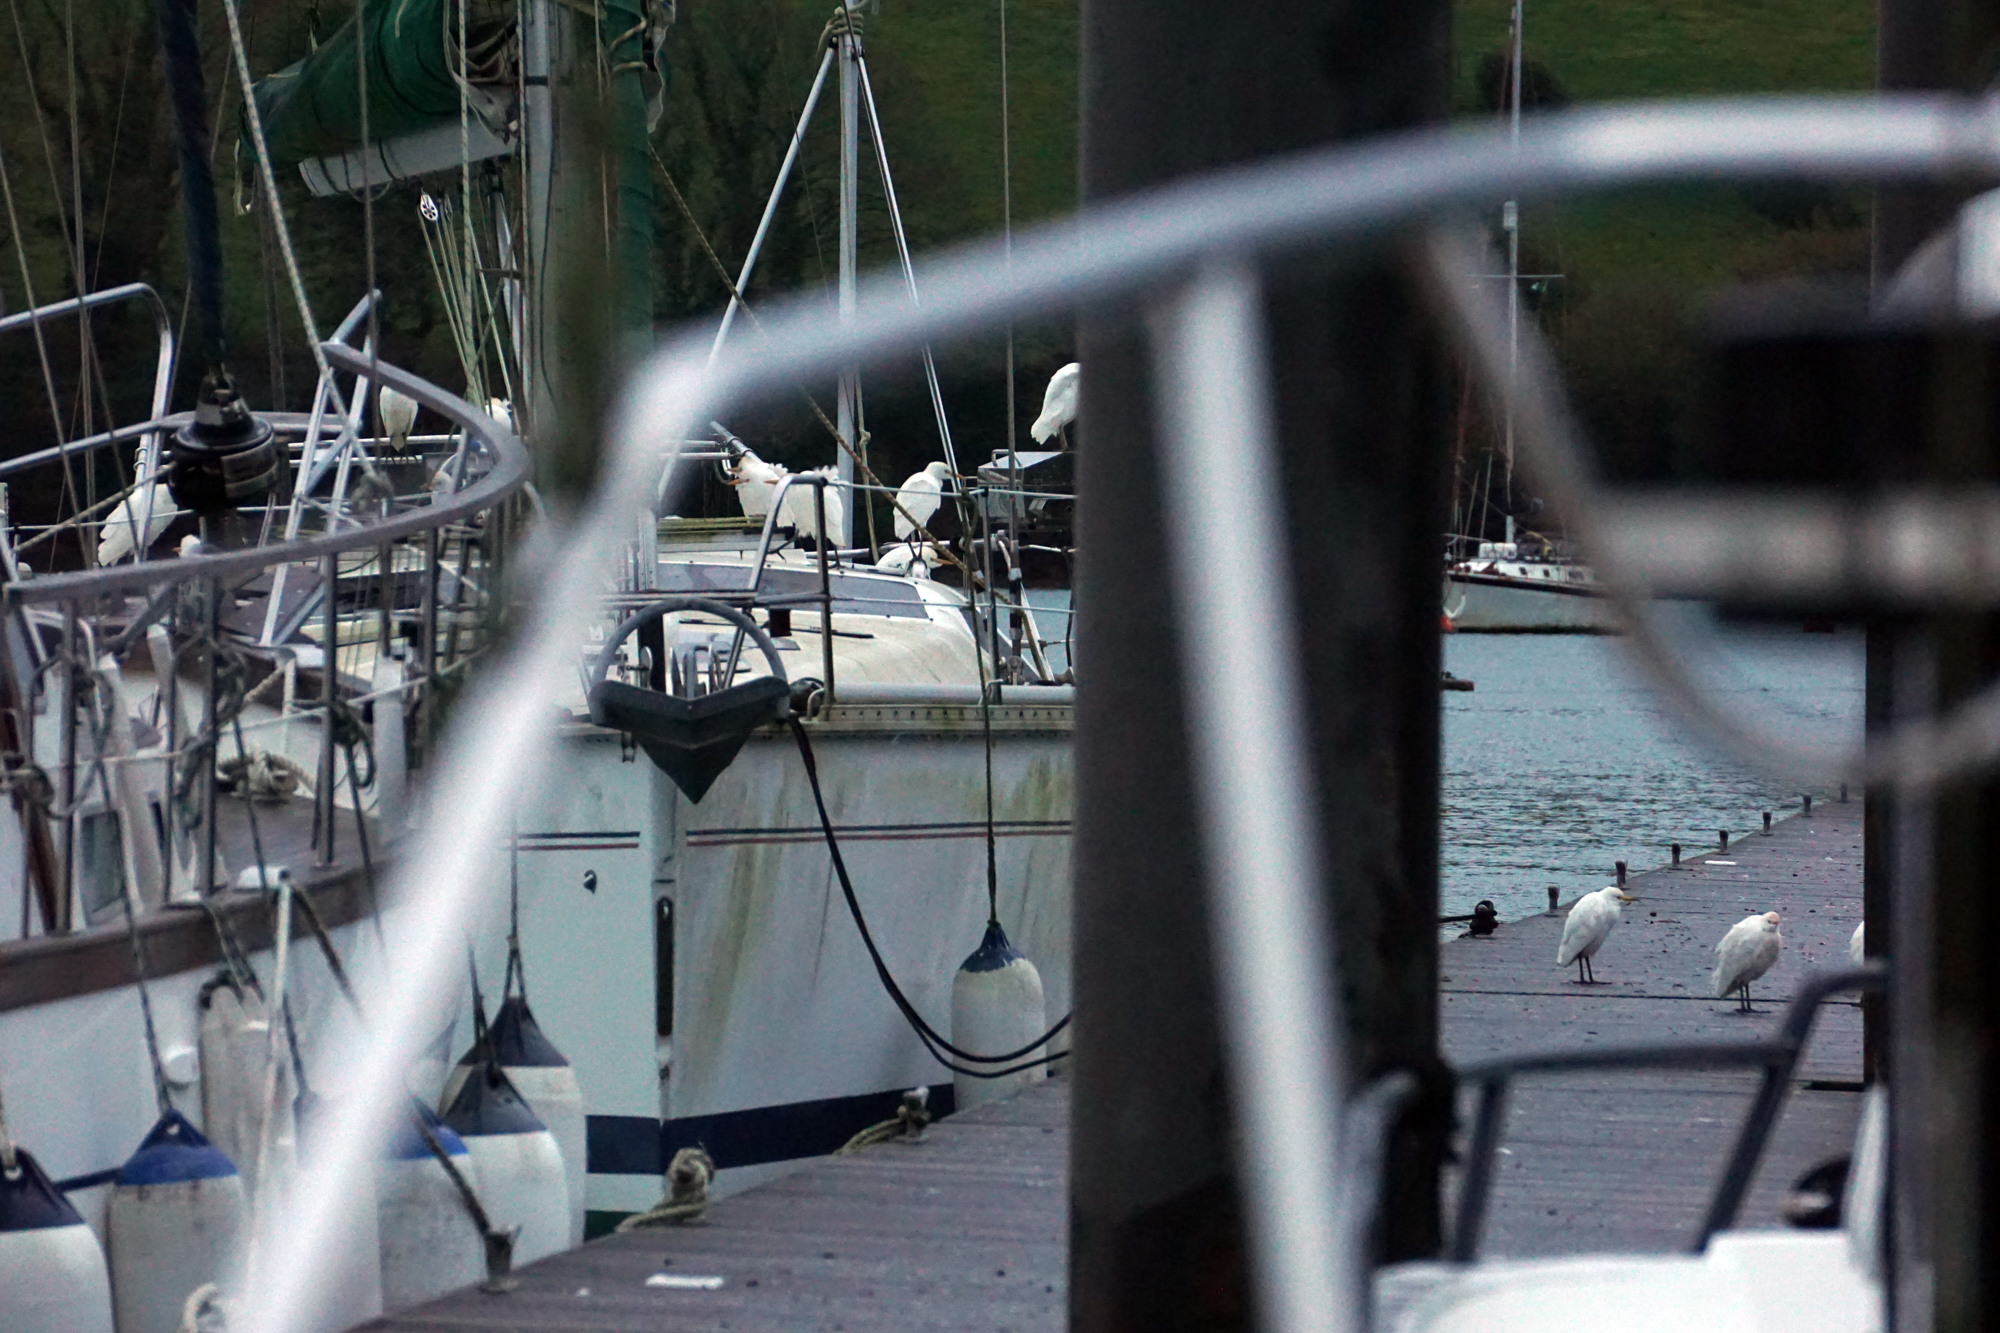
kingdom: Animalia
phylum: Chordata
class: Aves
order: Pelecaniformes
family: Ardeidae
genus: Bubulcus
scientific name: Bubulcus ibis
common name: Cattle egret
